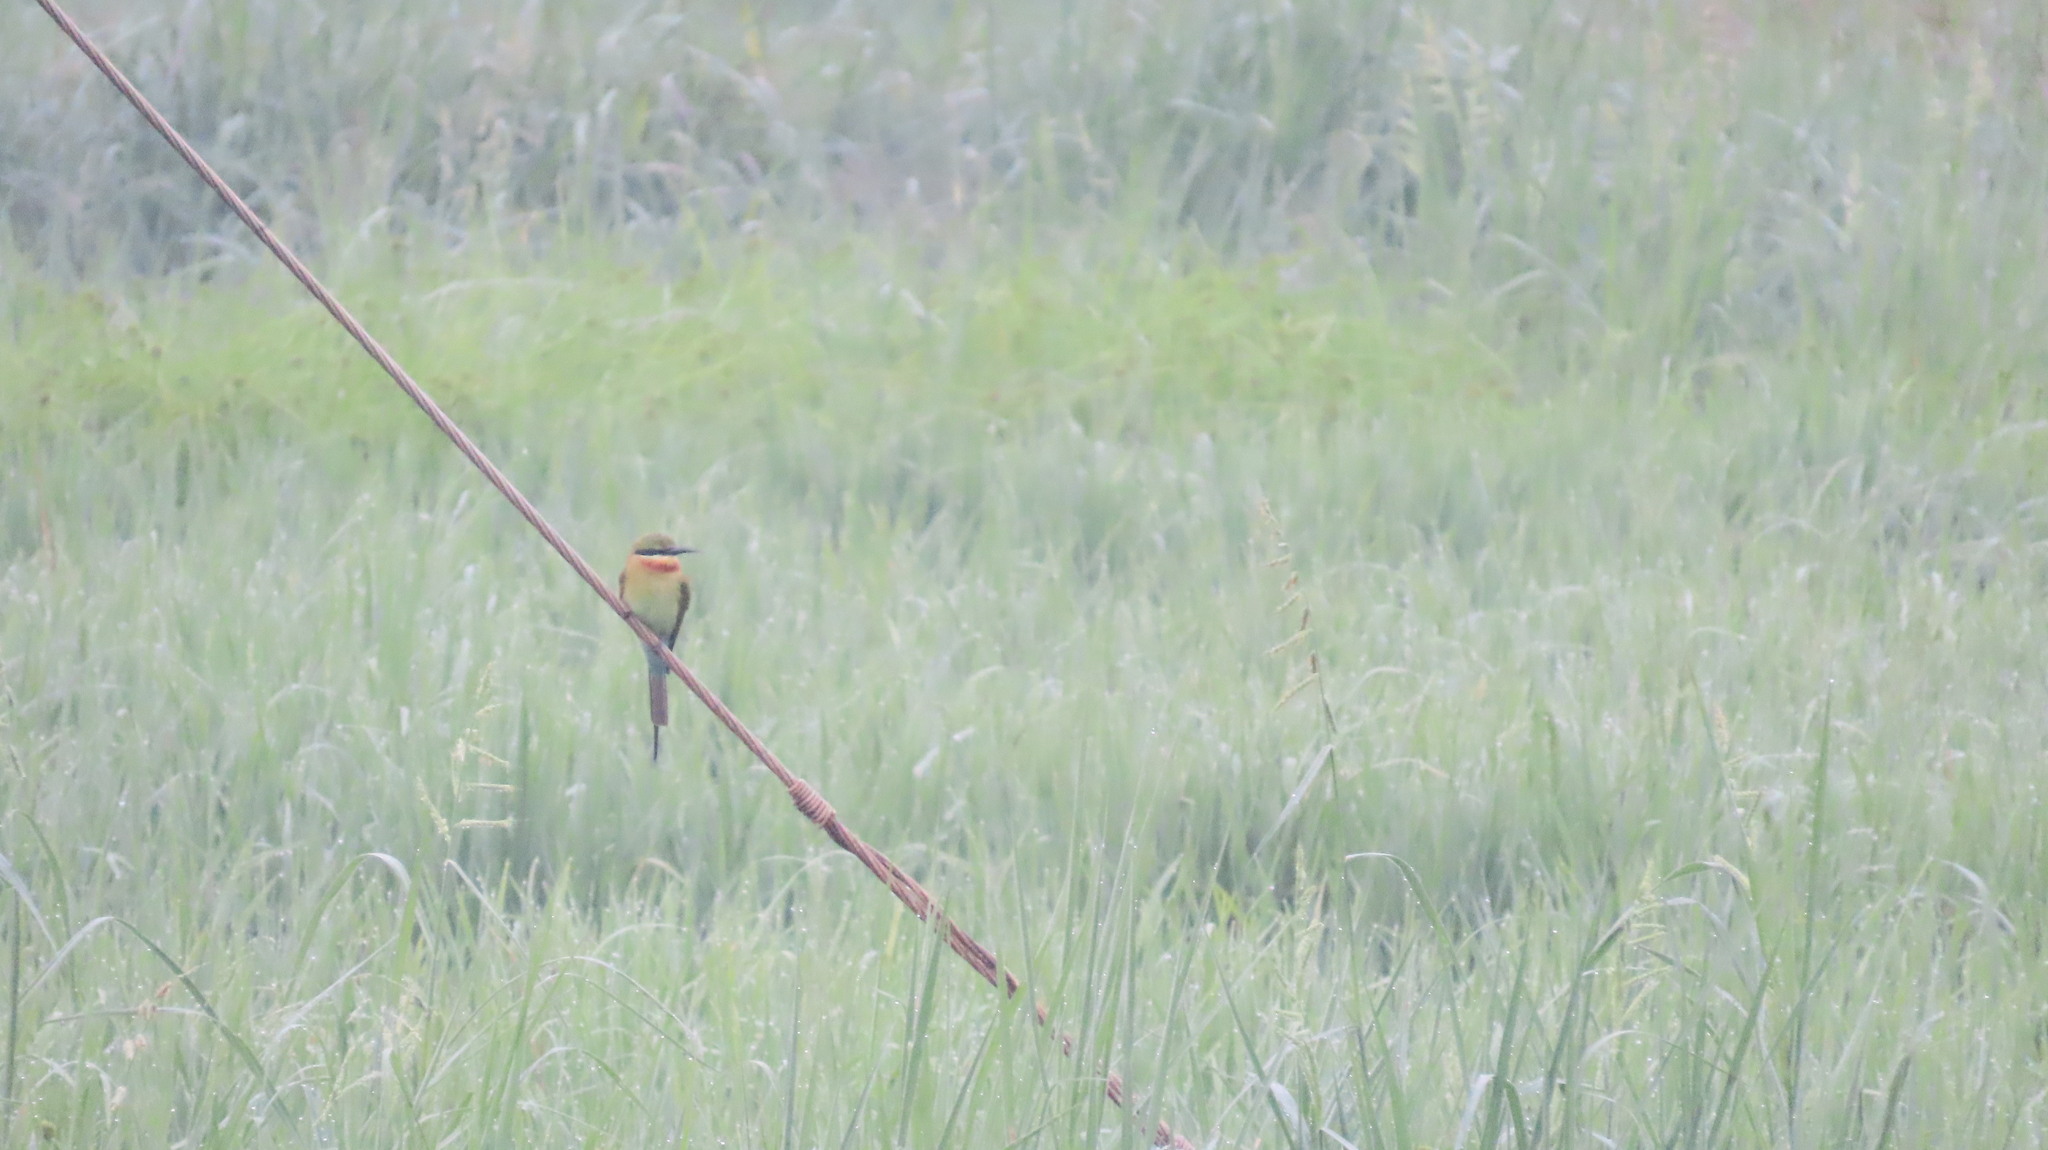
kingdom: Animalia
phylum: Chordata
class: Aves
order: Coraciiformes
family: Meropidae
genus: Merops
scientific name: Merops philippinus
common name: Blue-tailed bee-eater
